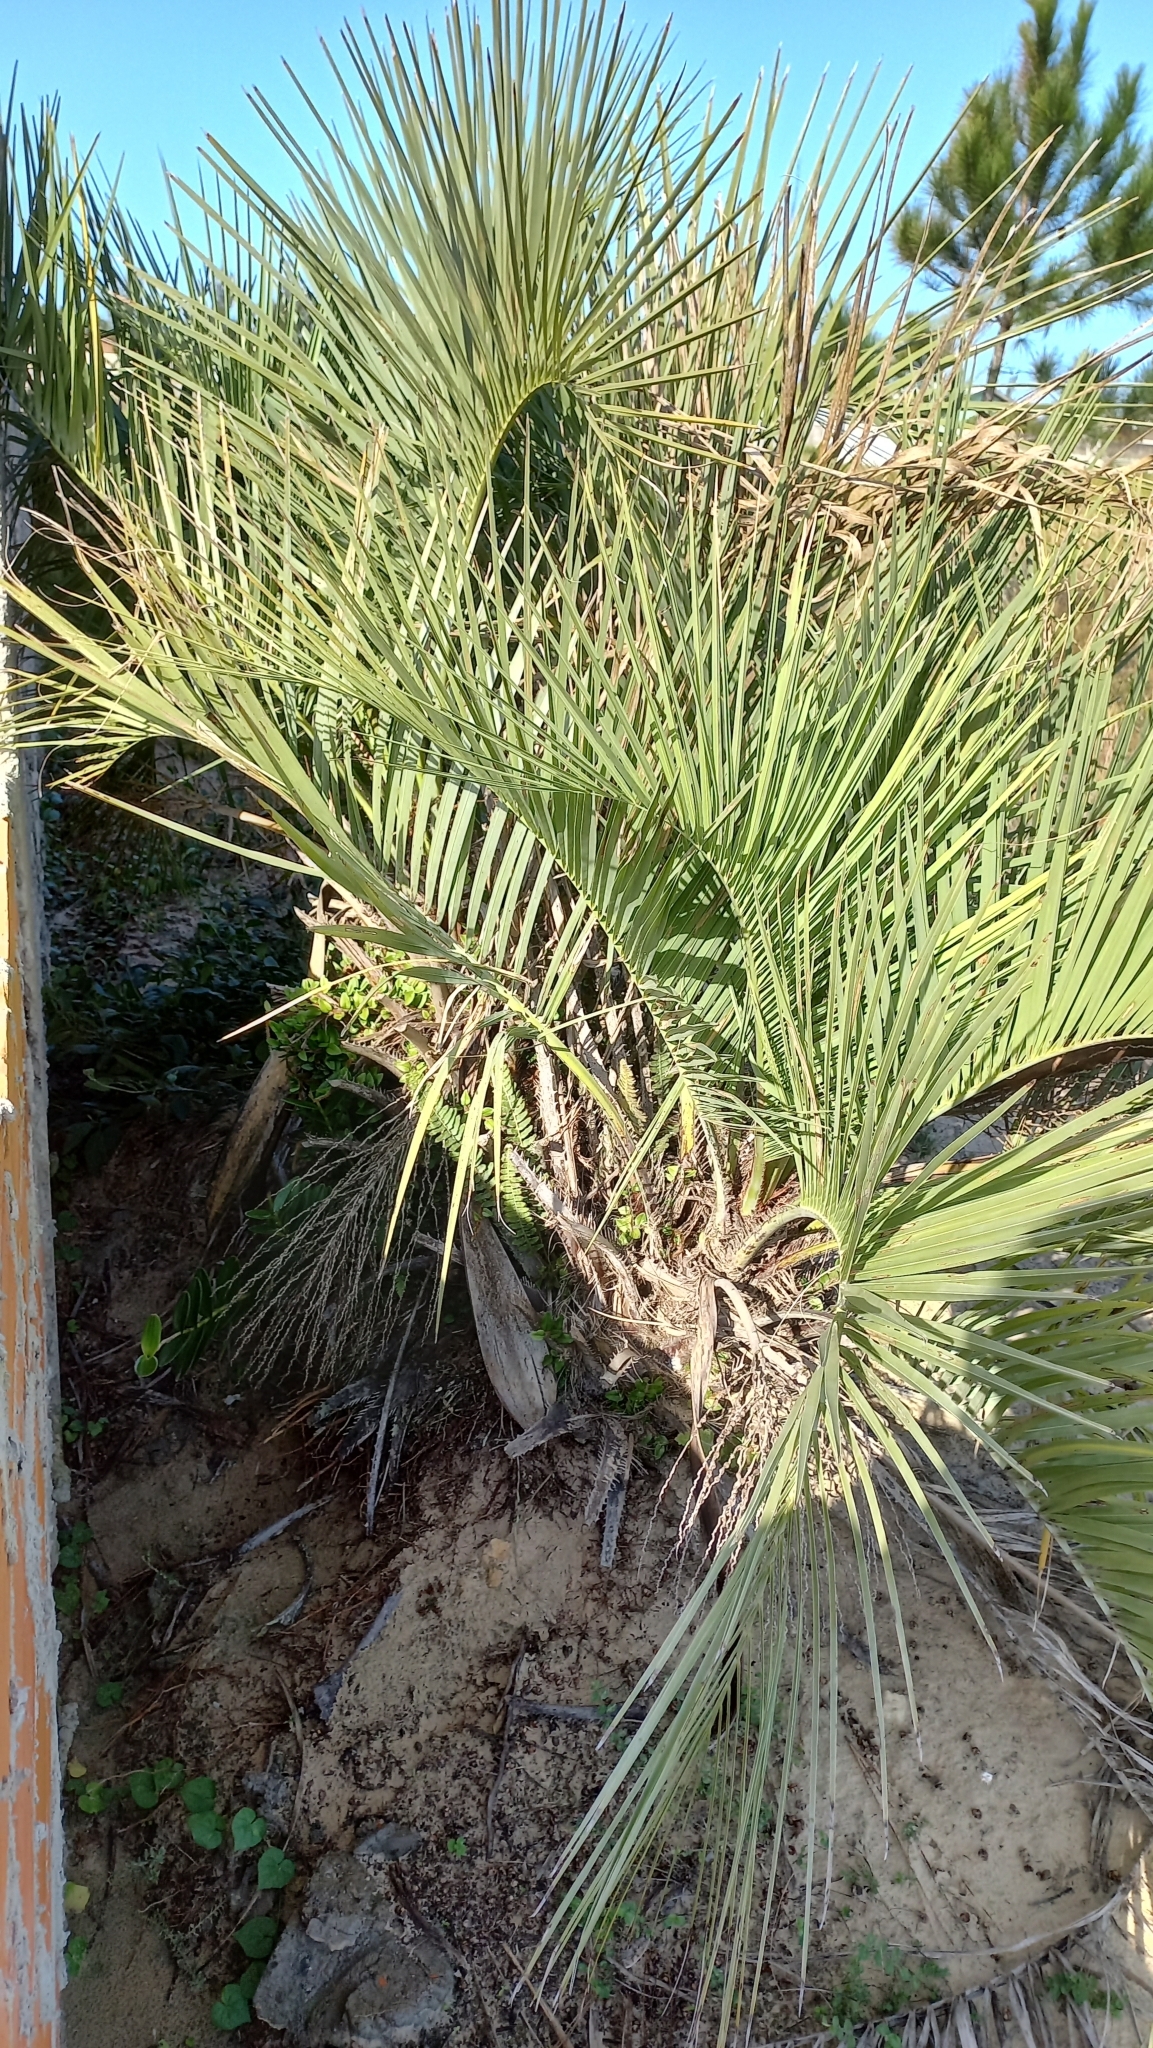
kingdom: Plantae
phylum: Tracheophyta
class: Liliopsida
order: Arecales
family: Arecaceae
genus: Butia
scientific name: Butia catarinensis
